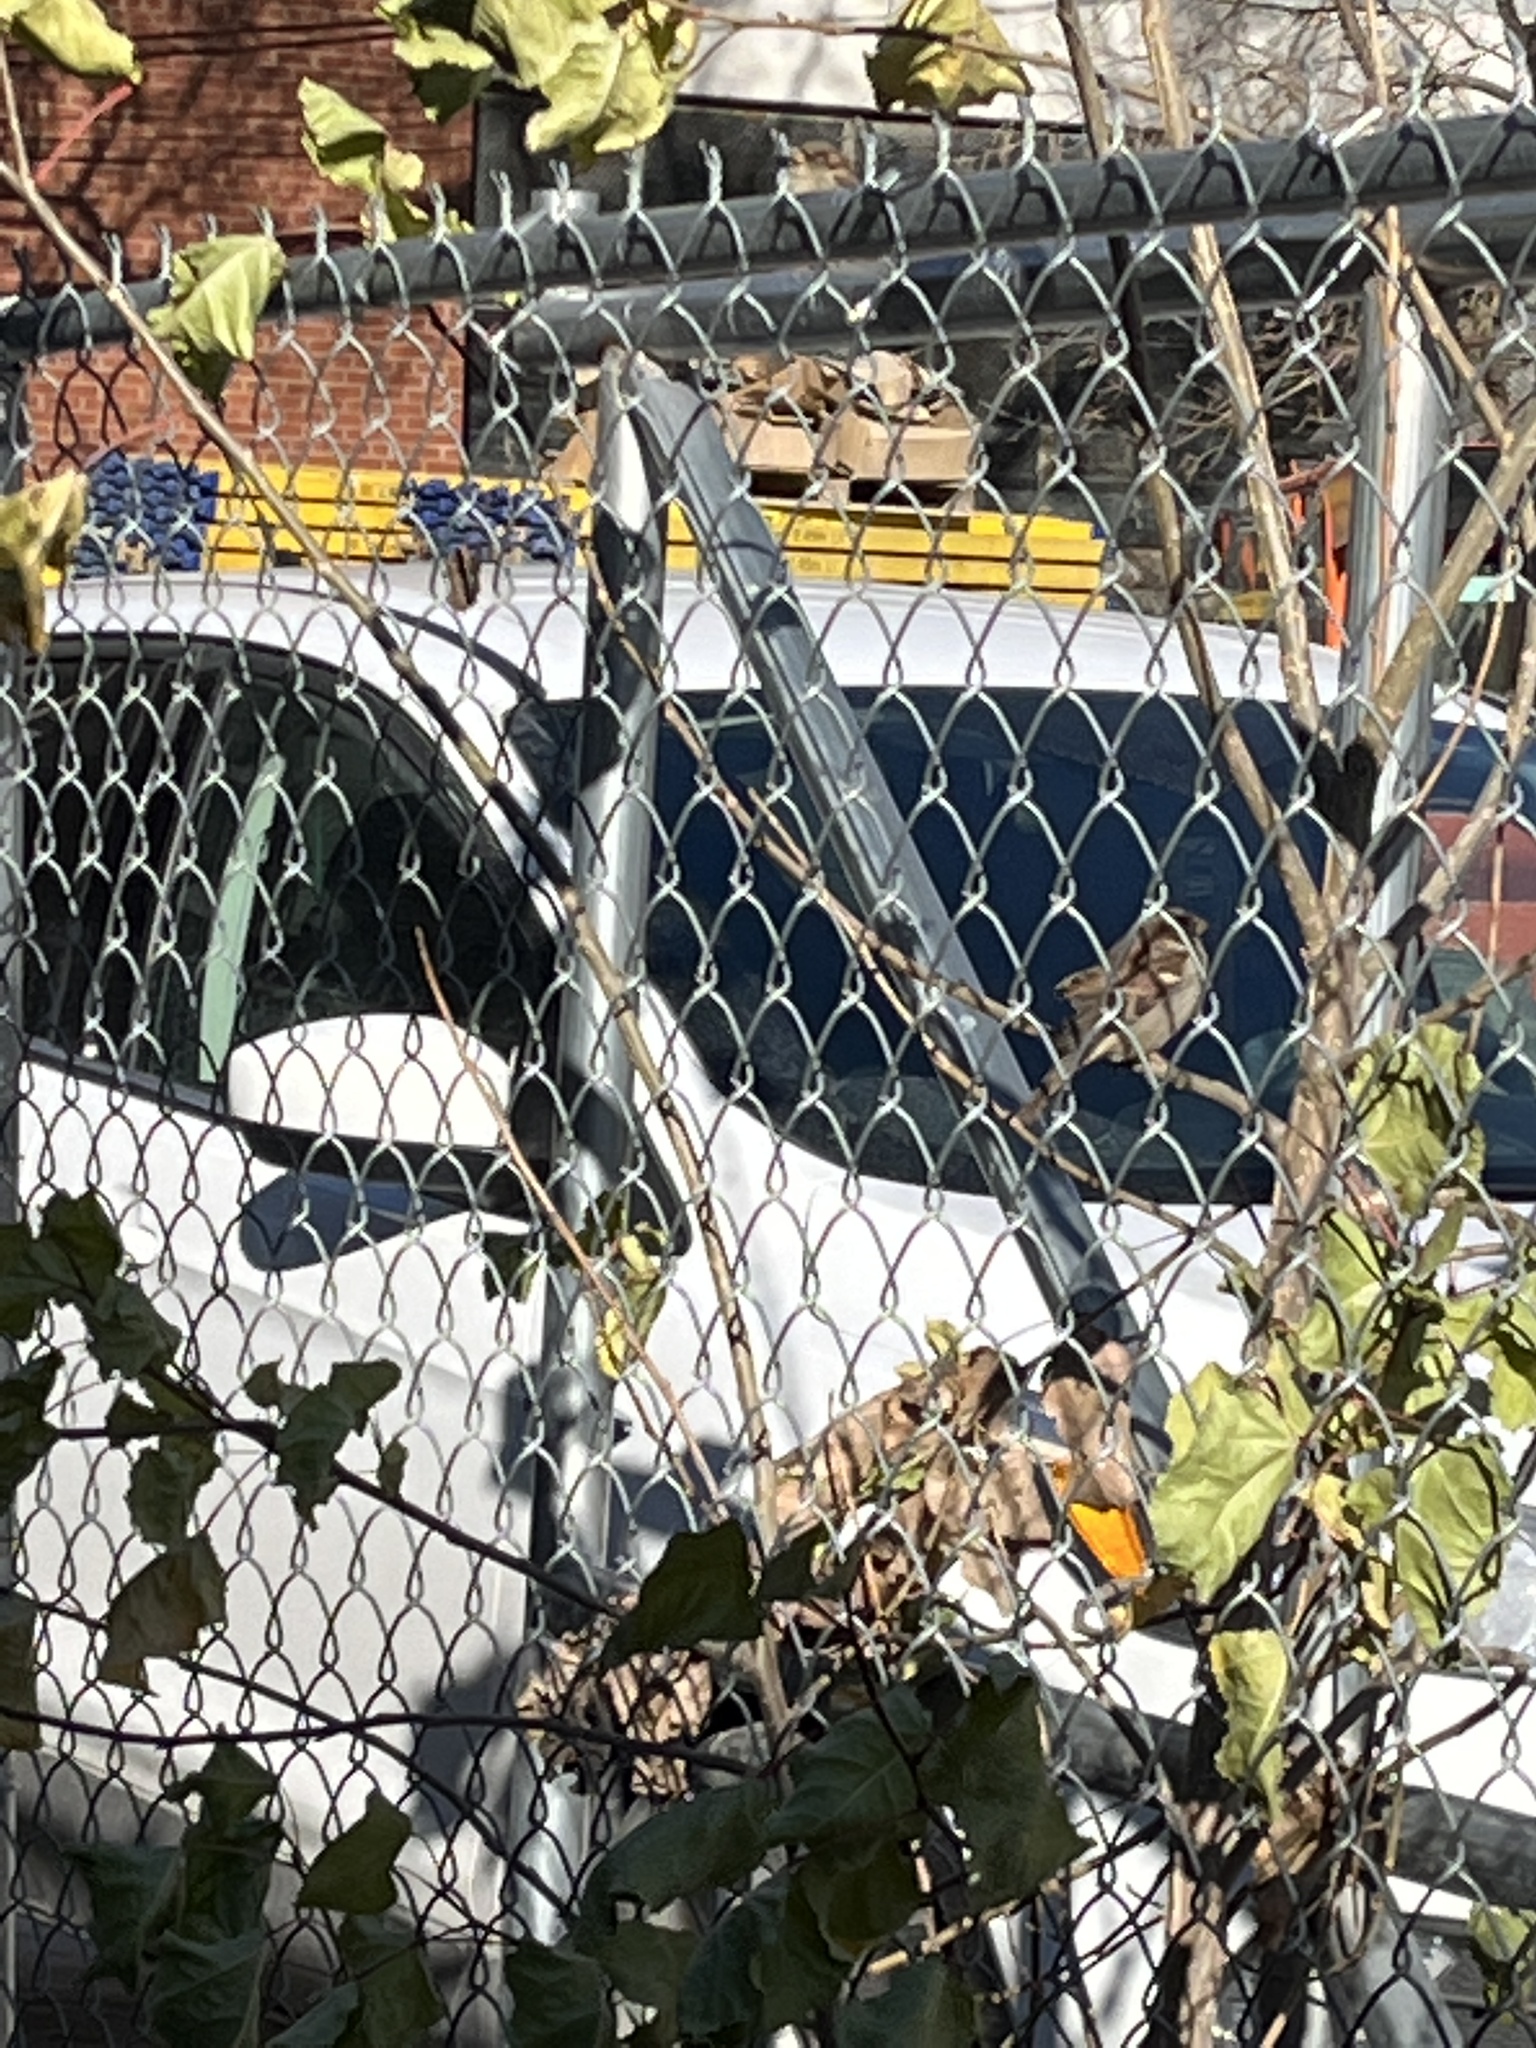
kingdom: Animalia
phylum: Chordata
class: Aves
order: Passeriformes
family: Passeridae
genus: Passer
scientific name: Passer domesticus
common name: House sparrow
